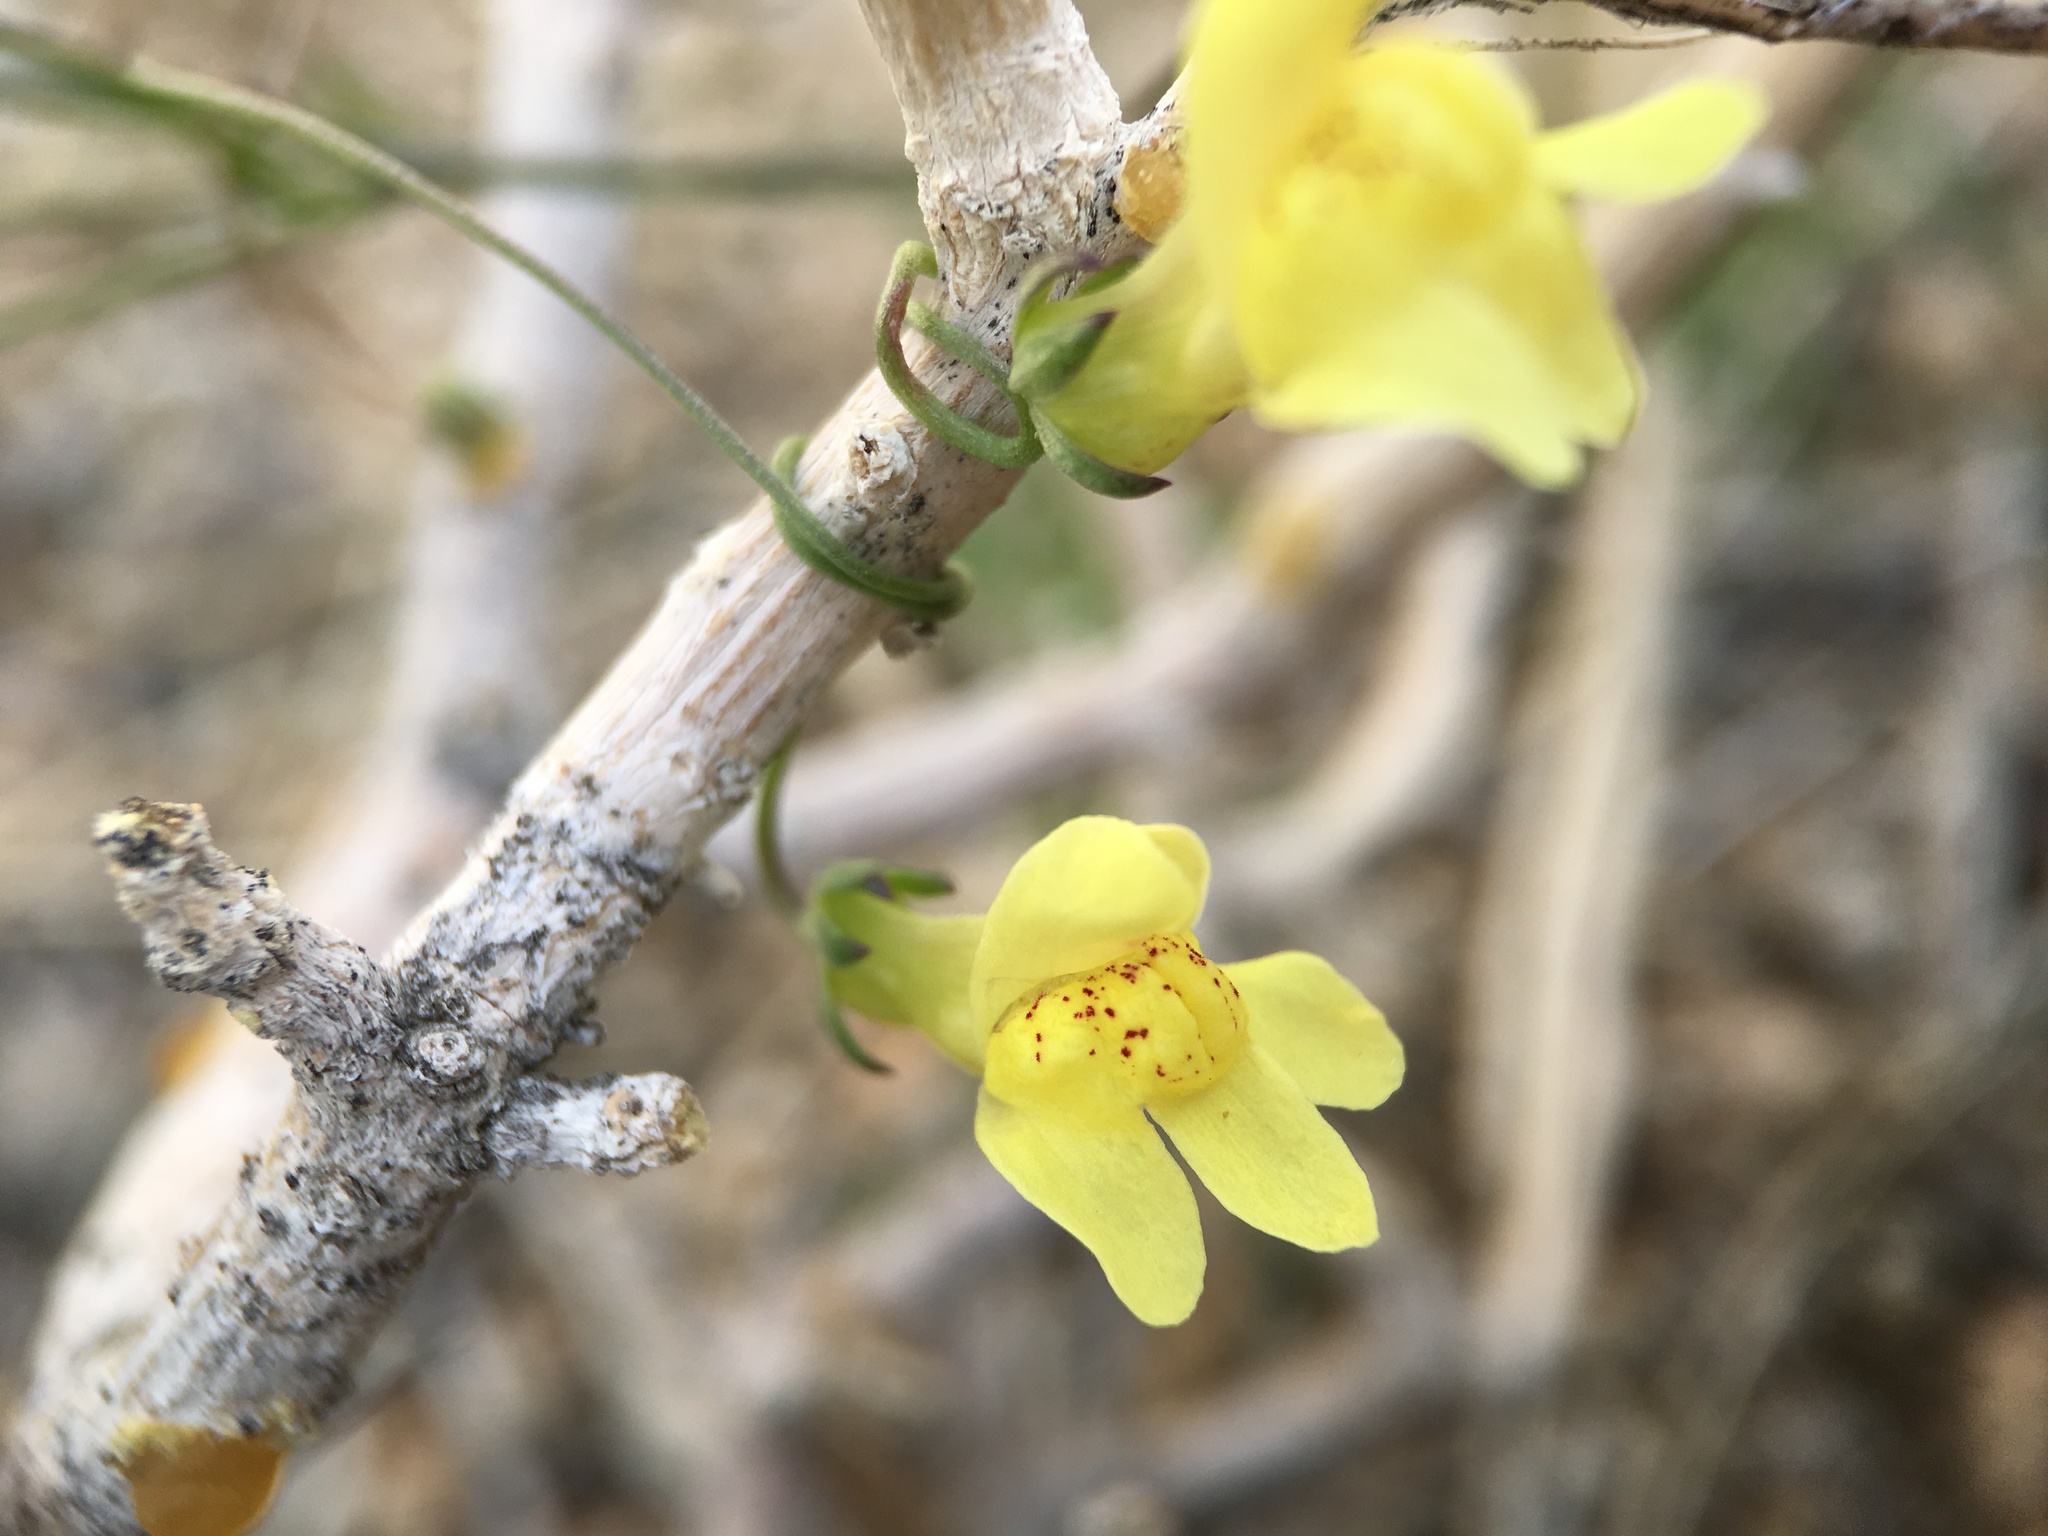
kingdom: Plantae
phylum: Tracheophyta
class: Magnoliopsida
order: Lamiales
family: Plantaginaceae
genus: Neogaerrhinum
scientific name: Neogaerrhinum filipes
